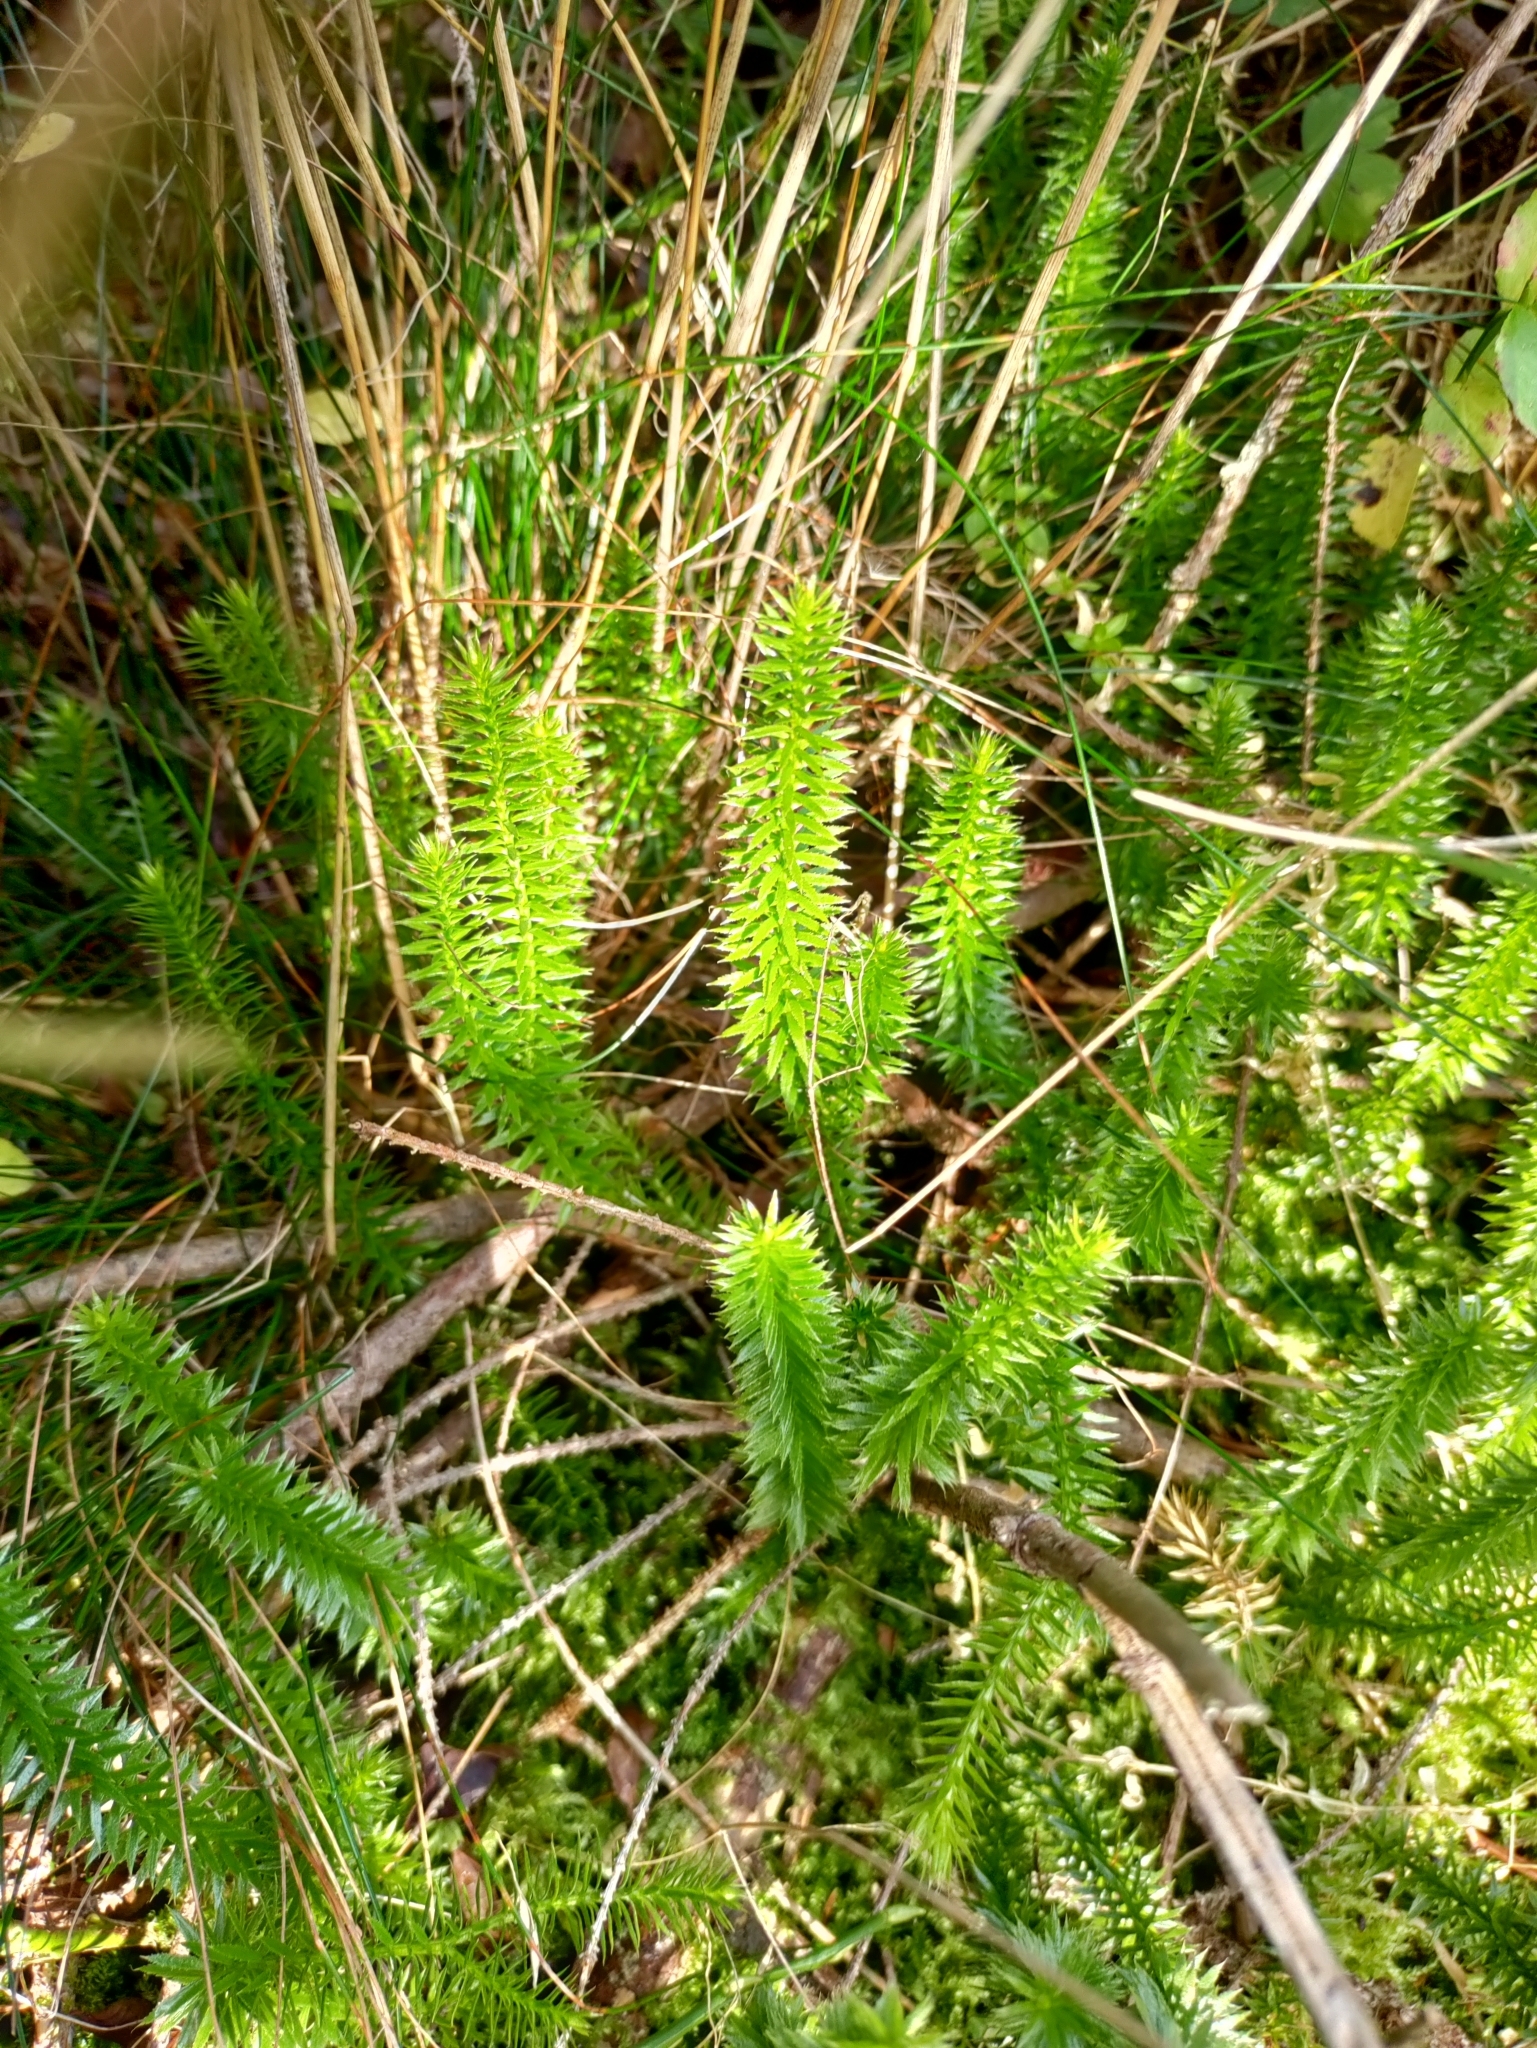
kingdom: Plantae
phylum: Tracheophyta
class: Lycopodiopsida
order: Lycopodiales
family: Lycopodiaceae
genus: Spinulum
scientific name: Spinulum annotinum
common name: Interrupted club-moss
